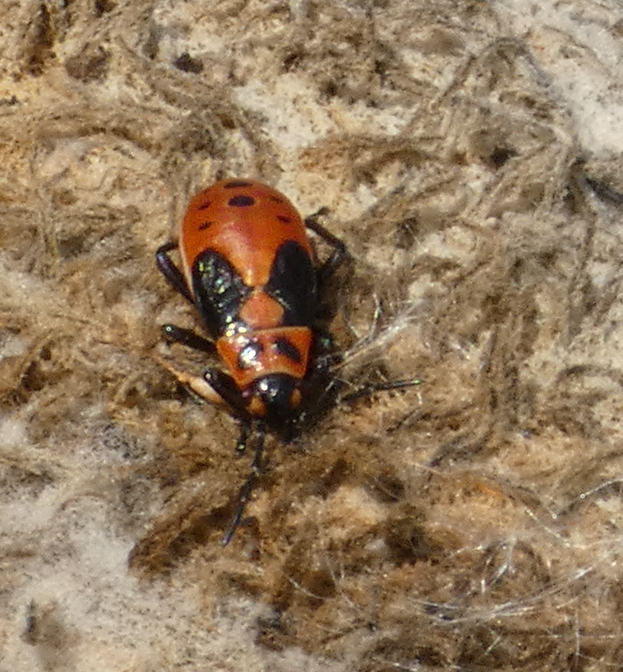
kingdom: Animalia
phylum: Arthropoda
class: Insecta
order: Hemiptera
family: Lygaeidae
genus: Lygaeus
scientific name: Lygaeus kalmii
